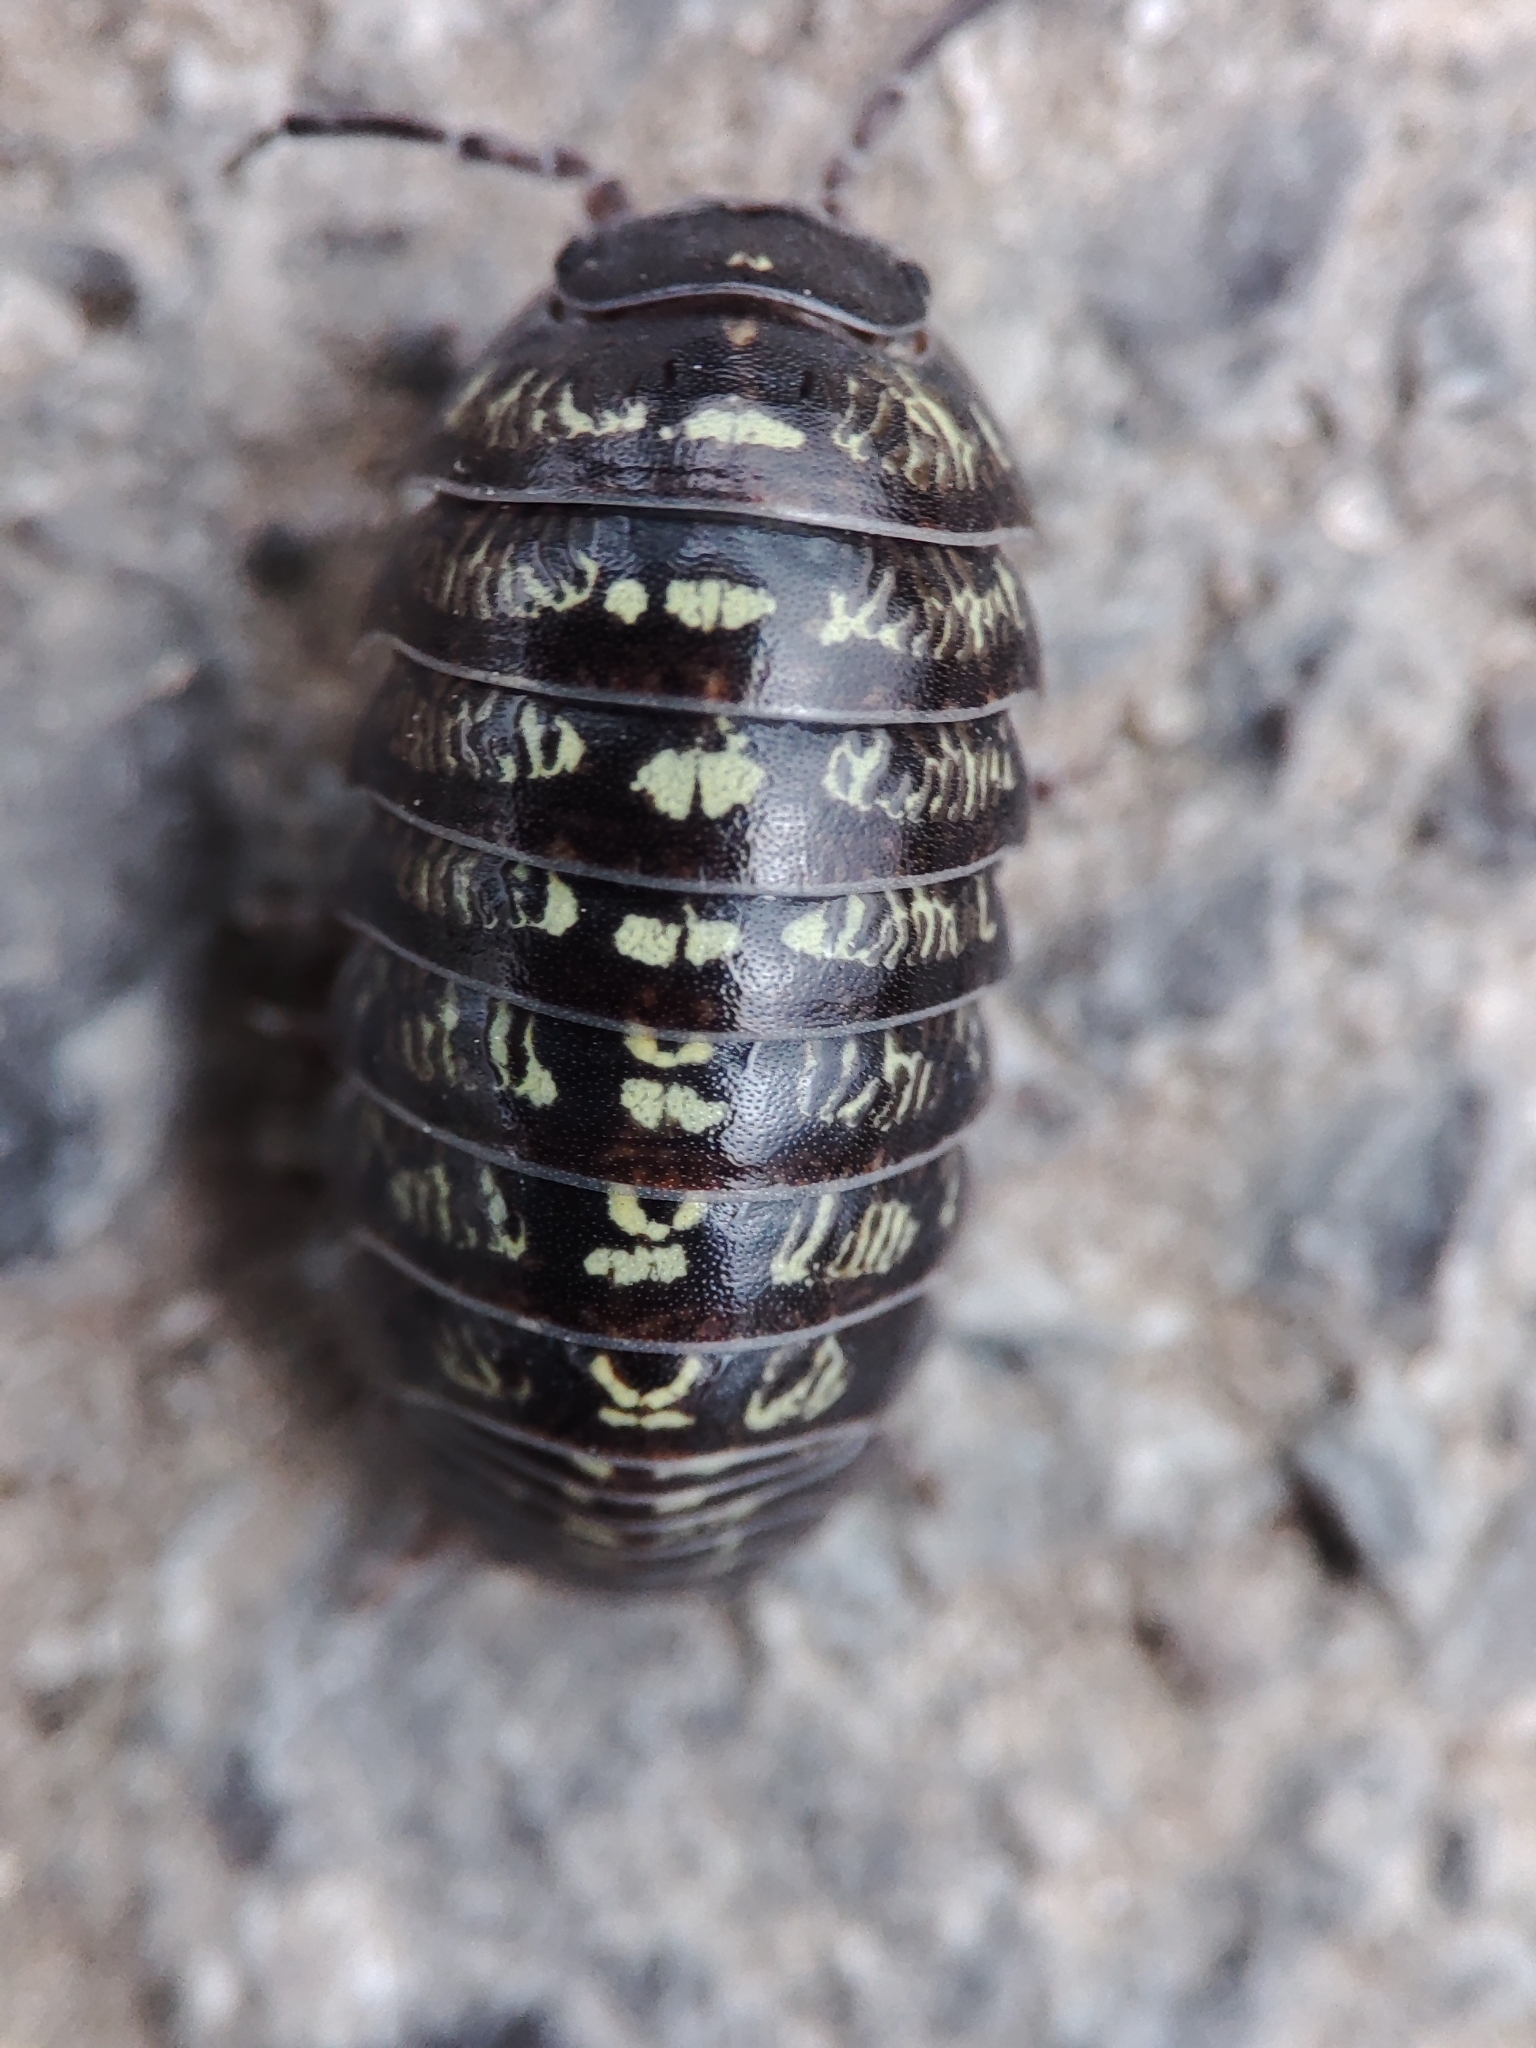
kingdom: Animalia
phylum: Arthropoda
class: Malacostraca
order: Isopoda
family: Armadillidiidae
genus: Armadillidium
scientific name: Armadillidium vulgare
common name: Common pill woodlouse
